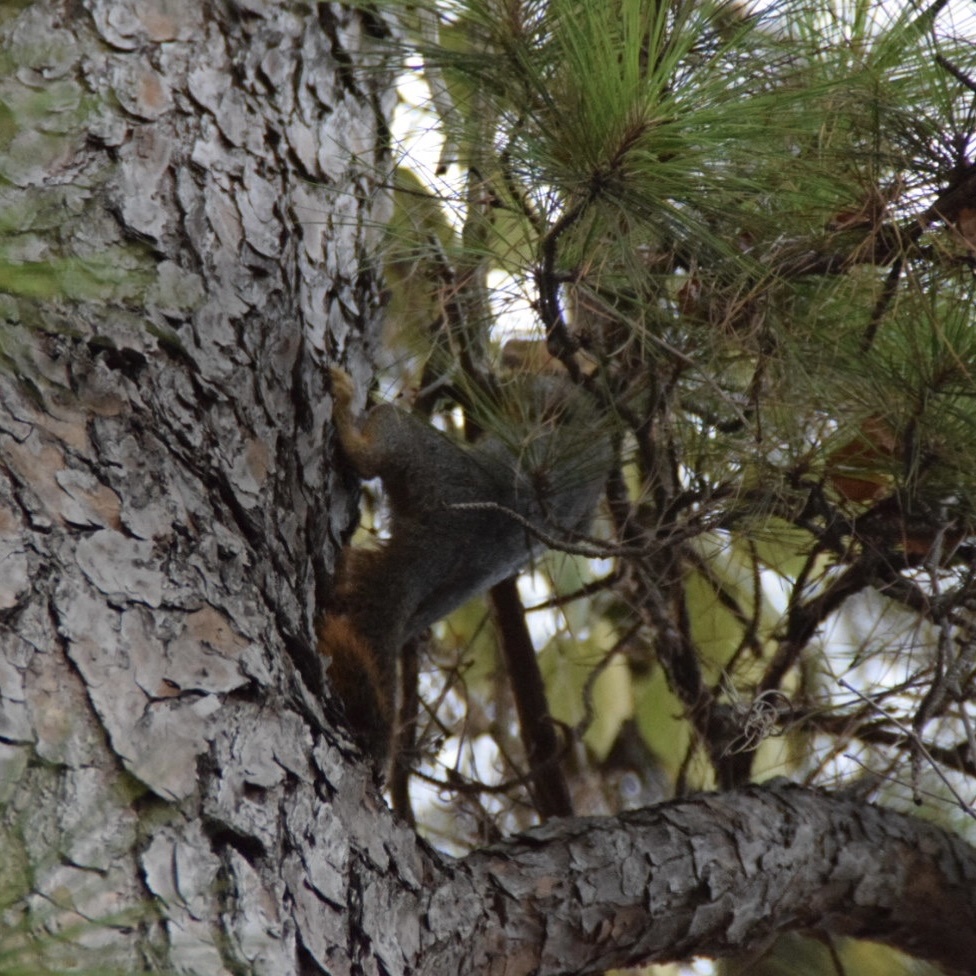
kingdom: Animalia
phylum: Chordata
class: Mammalia
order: Rodentia
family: Sciuridae
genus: Sciurus
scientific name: Sciurus niger
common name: Fox squirrel
